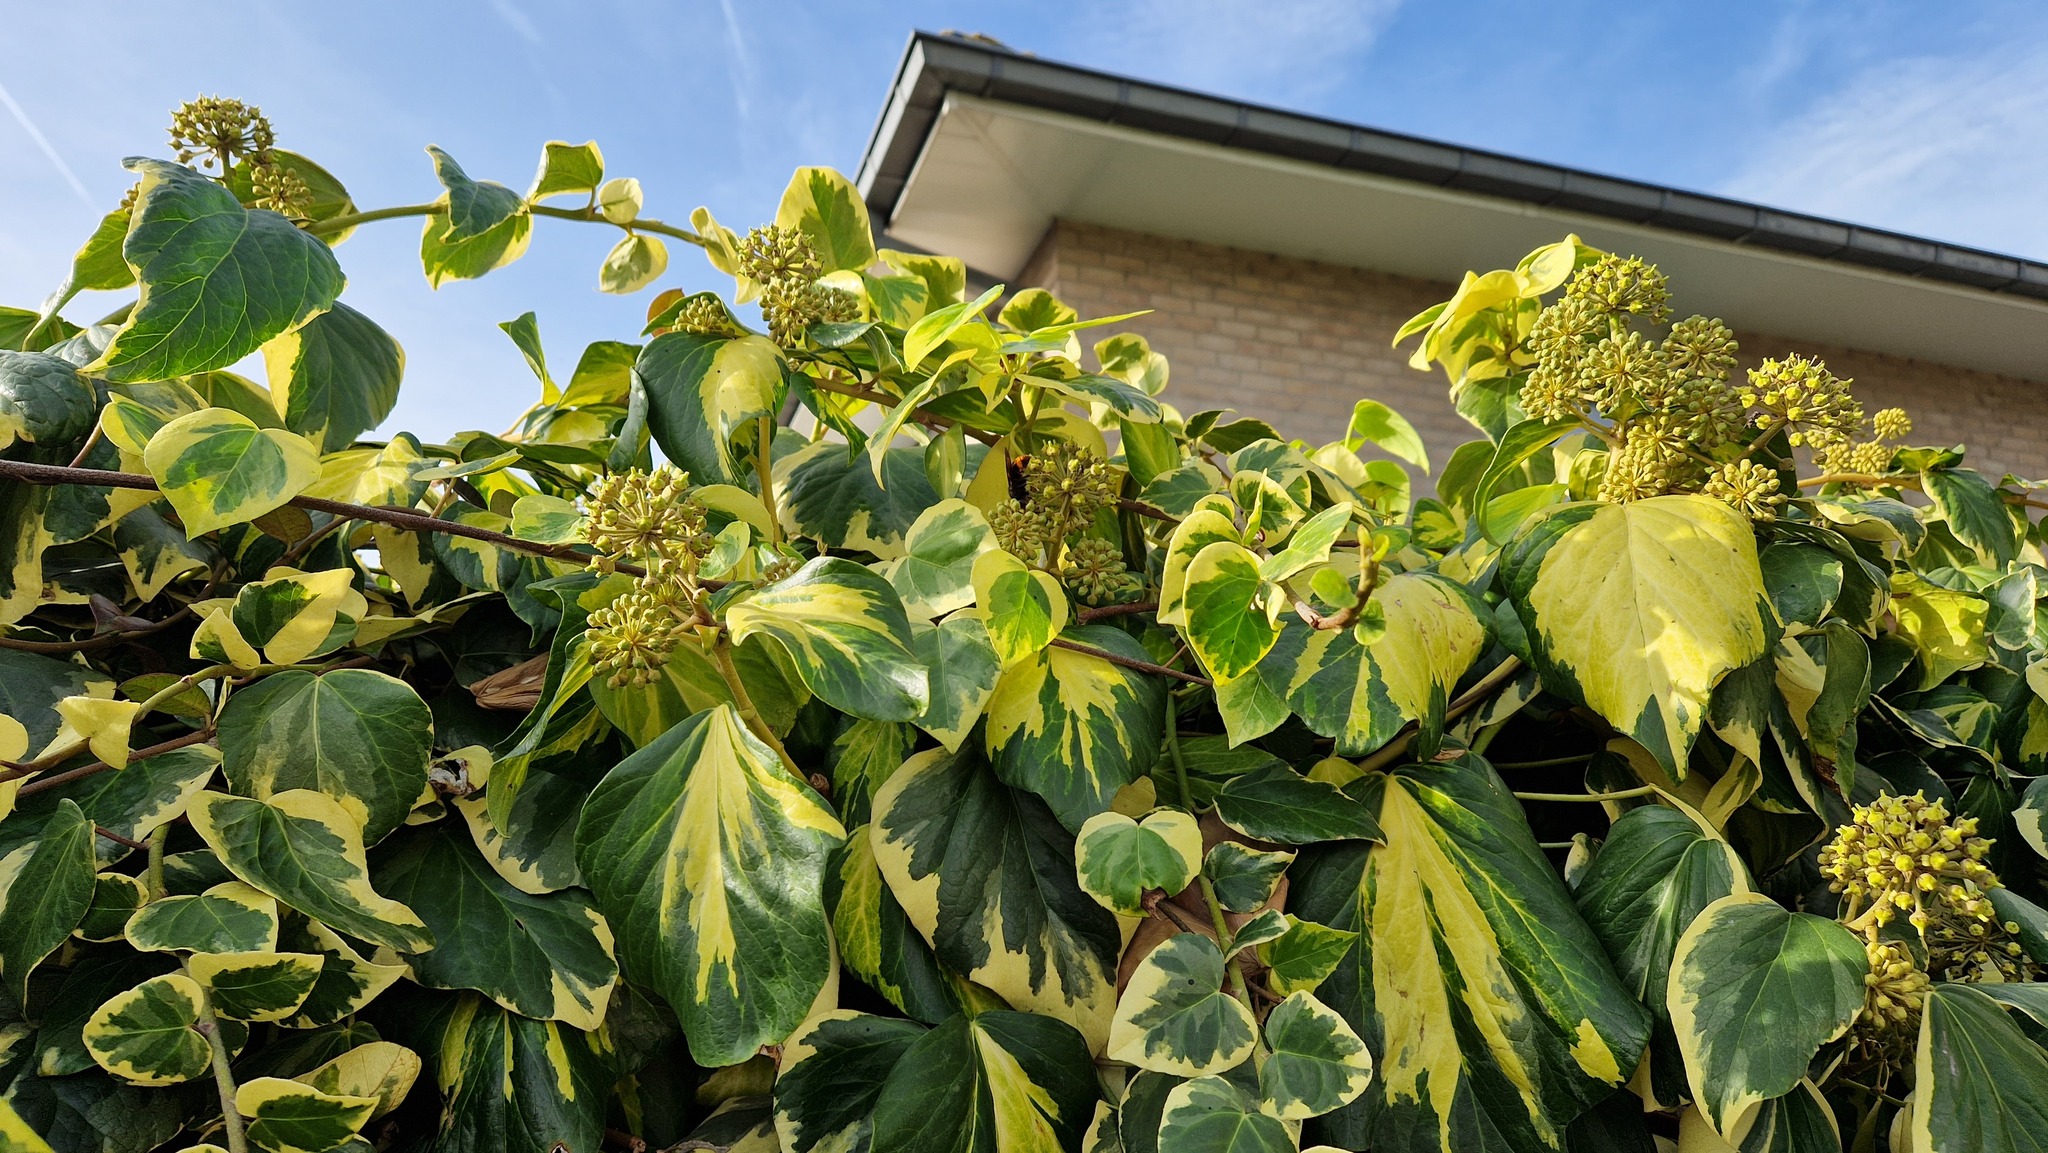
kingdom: Animalia
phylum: Arthropoda
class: Insecta
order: Hymenoptera
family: Vespidae
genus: Vespa
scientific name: Vespa velutina
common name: Asian hornet
